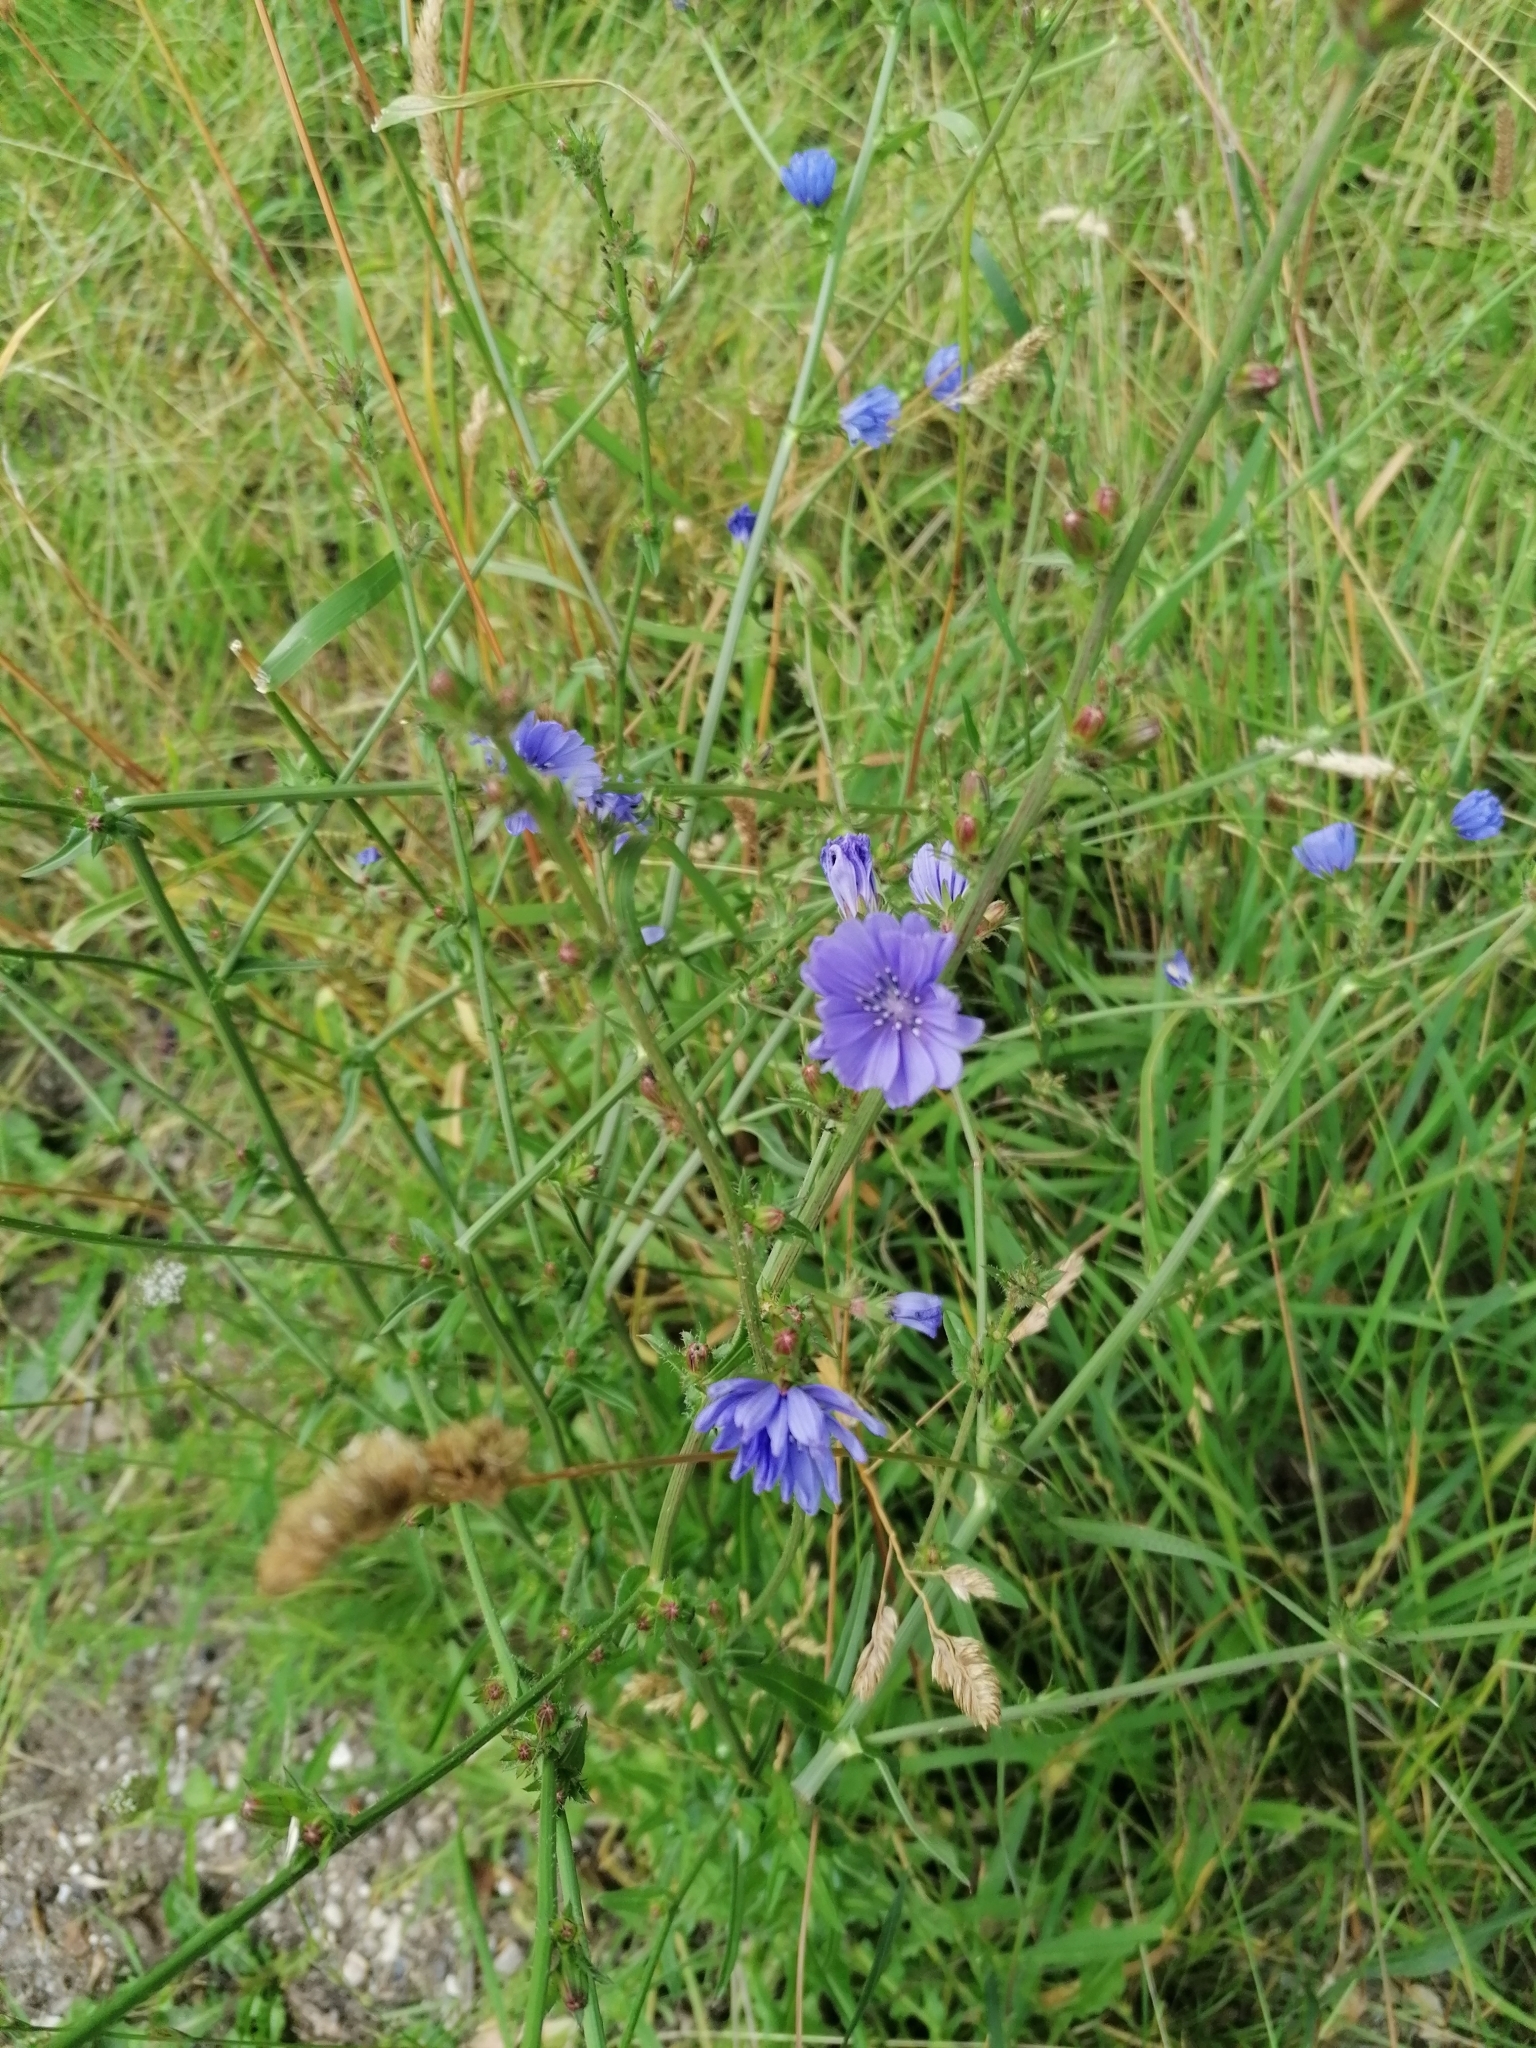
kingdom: Plantae
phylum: Tracheophyta
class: Magnoliopsida
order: Asterales
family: Asteraceae
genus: Cichorium
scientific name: Cichorium intybus
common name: Chicory
